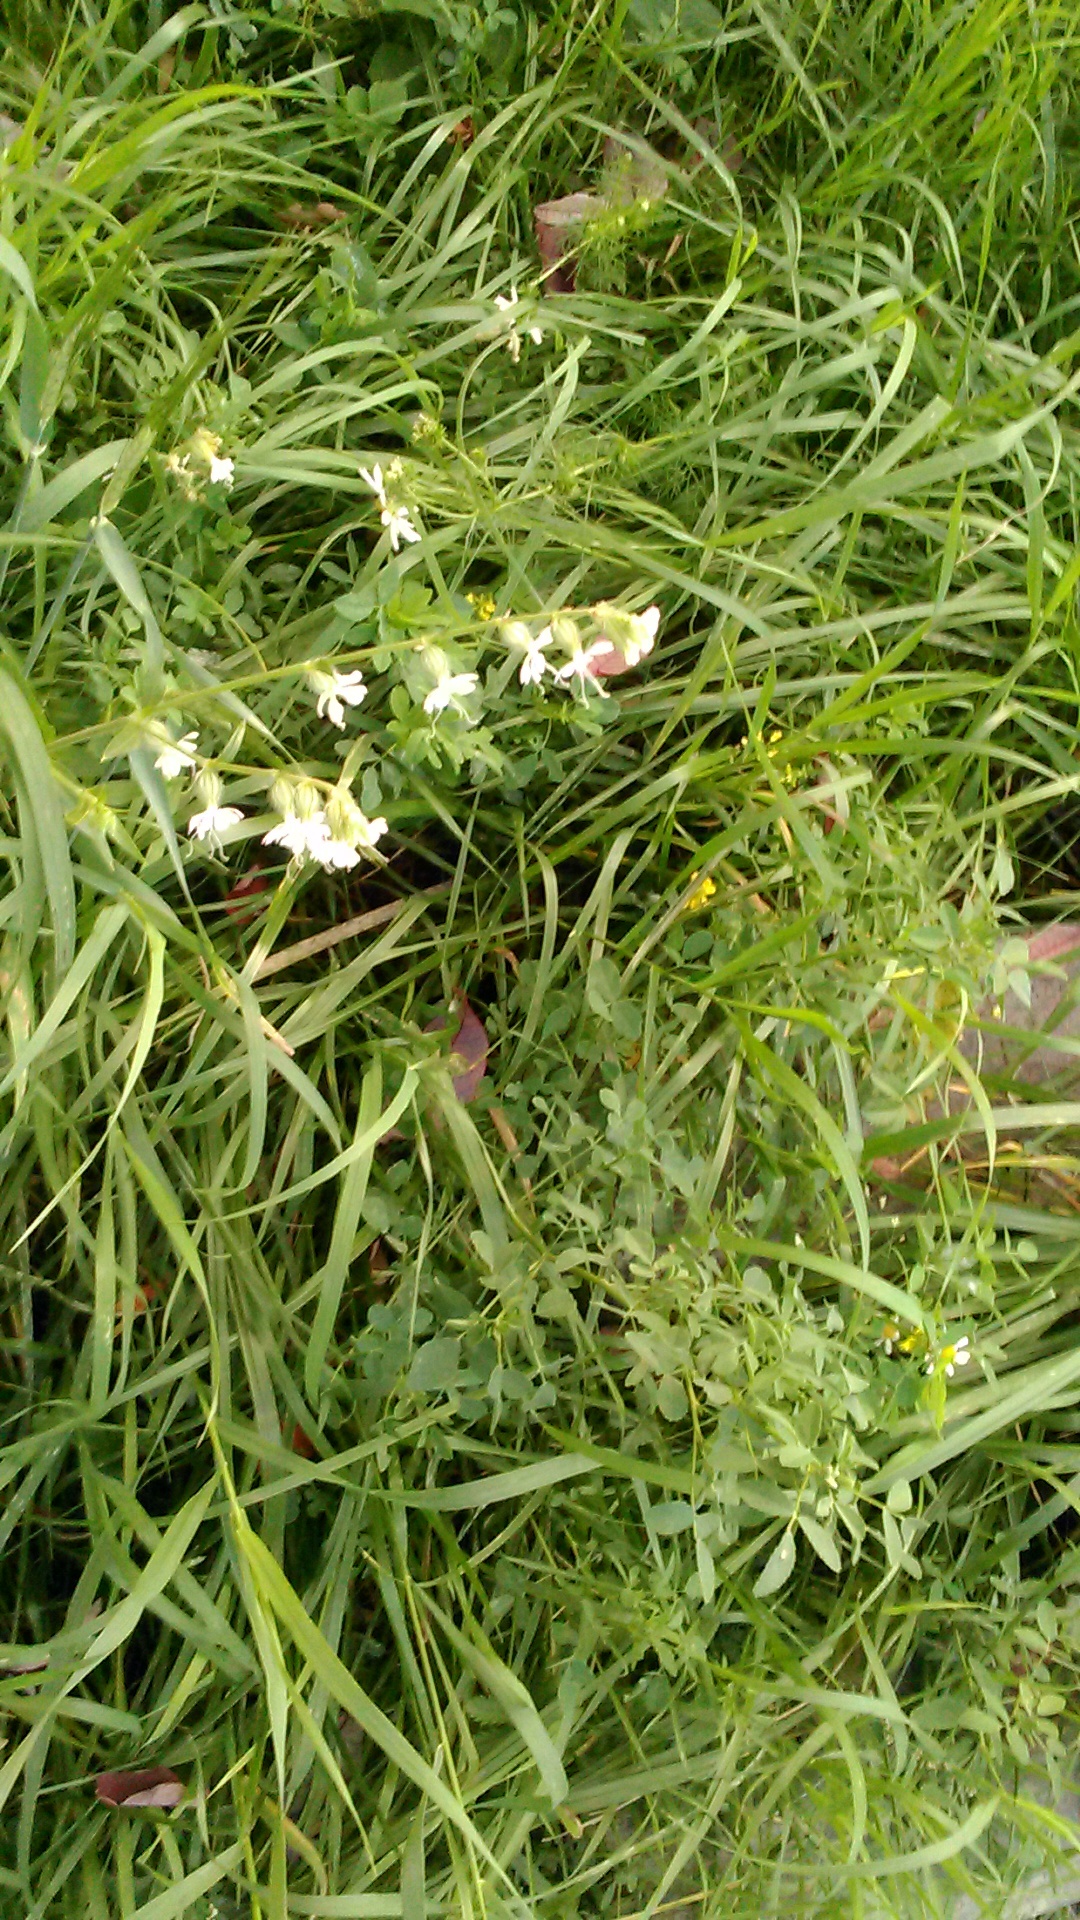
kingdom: Plantae
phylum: Tracheophyta
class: Magnoliopsida
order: Caryophyllales
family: Caryophyllaceae
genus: Silene
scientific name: Silene dichotoma
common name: Forked catchfly
